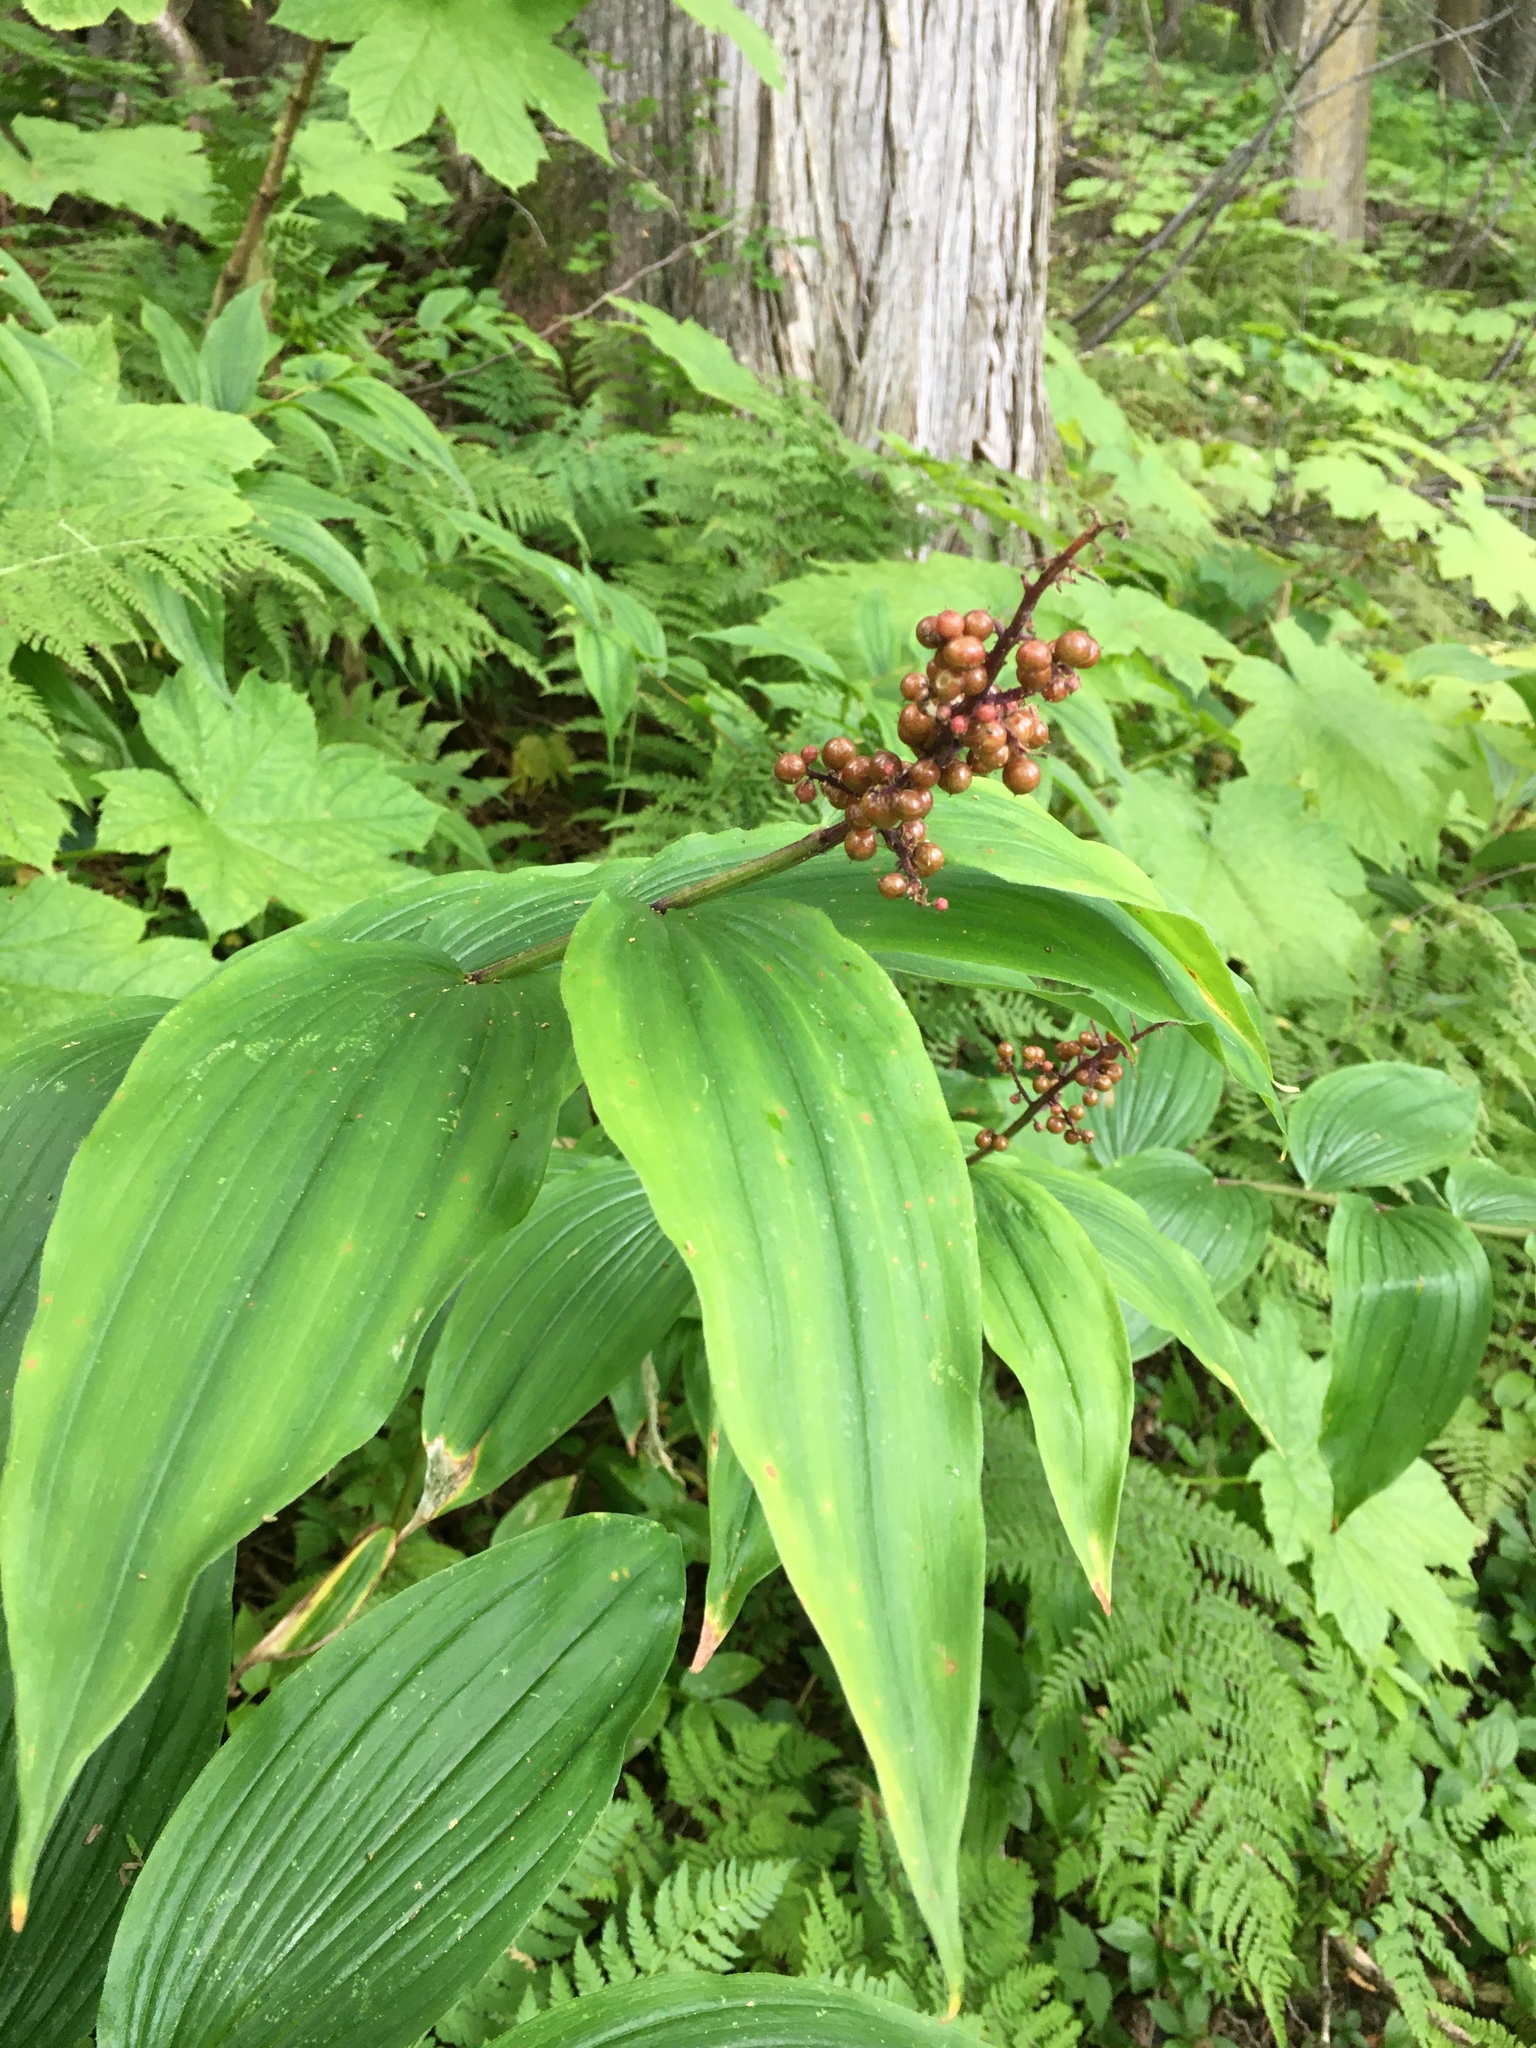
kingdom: Plantae
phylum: Tracheophyta
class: Liliopsida
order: Asparagales
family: Asparagaceae
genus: Maianthemum
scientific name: Maianthemum racemosum
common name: False spikenard
